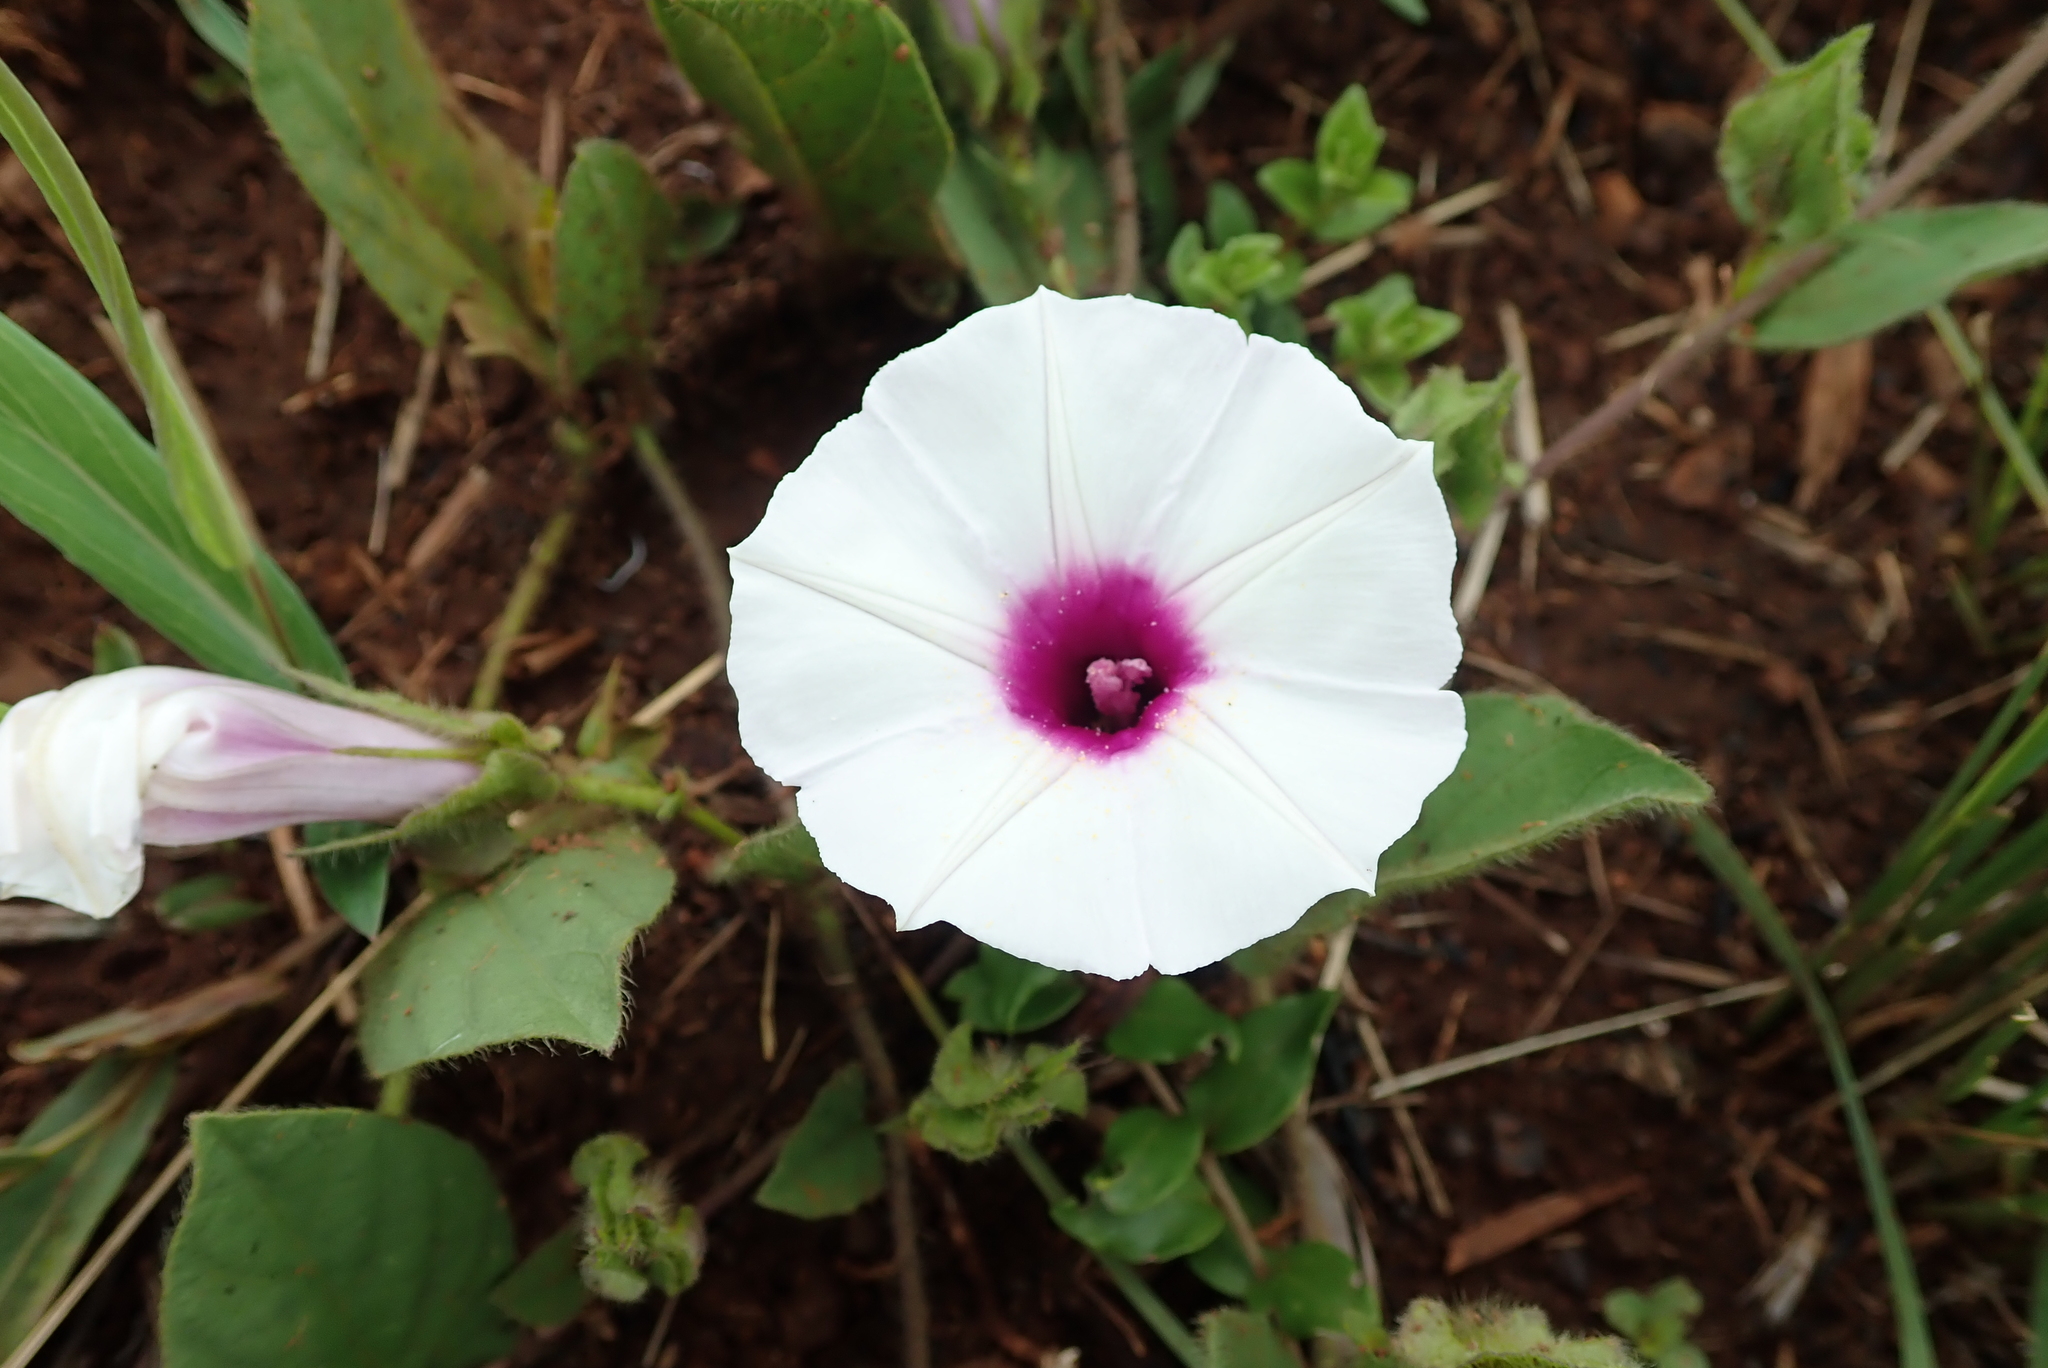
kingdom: Plantae
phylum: Tracheophyta
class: Magnoliopsida
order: Solanales
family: Convolvulaceae
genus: Ipomoea
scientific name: Ipomoea crassipes
